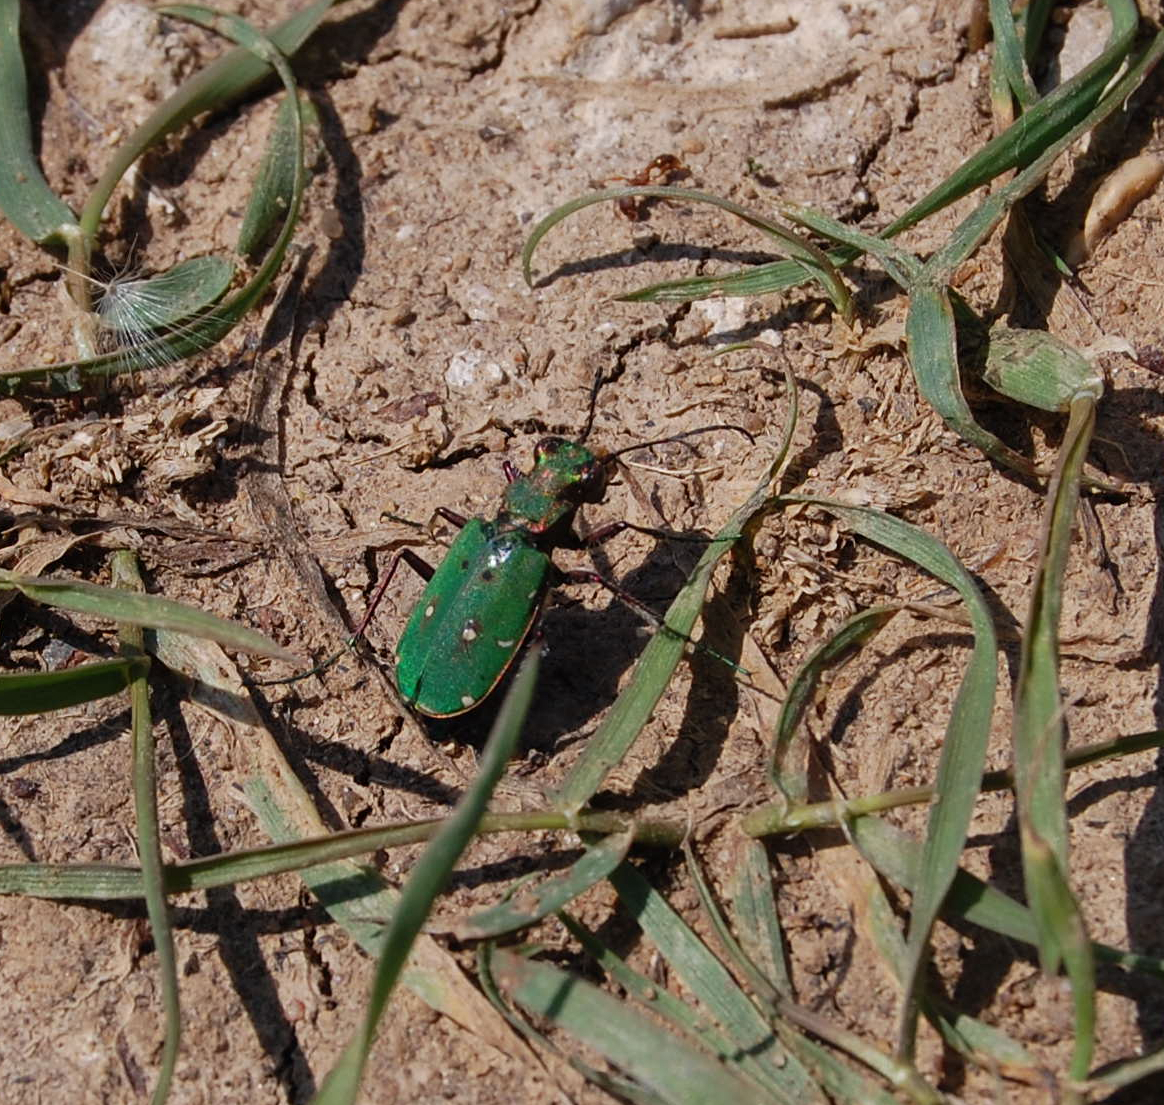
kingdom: Animalia
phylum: Arthropoda
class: Insecta
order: Coleoptera
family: Carabidae
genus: Cicindela
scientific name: Cicindela campestris
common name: Common tiger beetle
